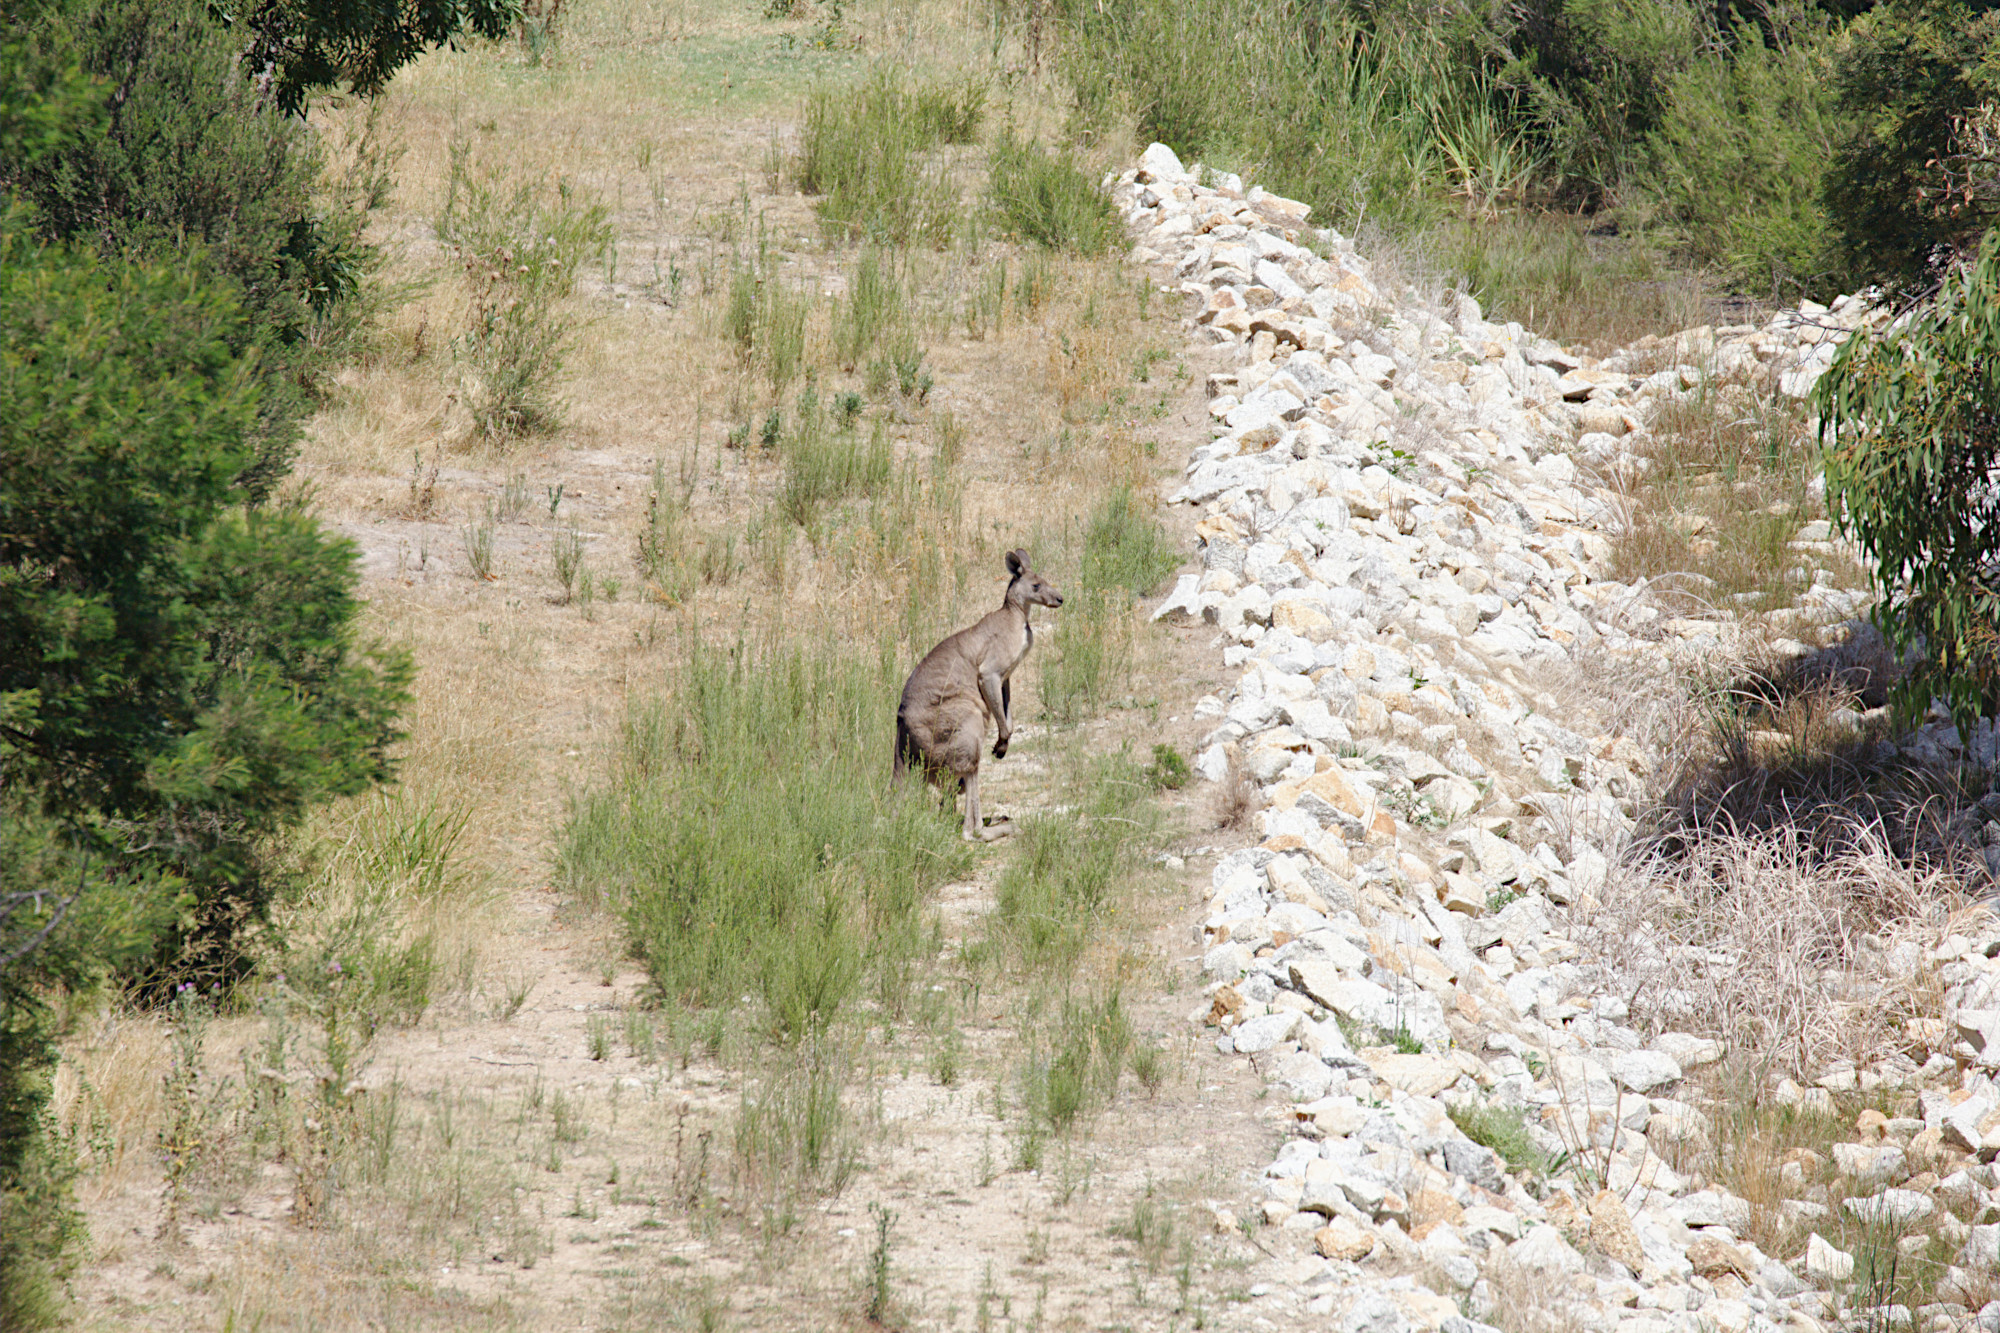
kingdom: Animalia
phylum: Chordata
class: Mammalia
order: Diprotodontia
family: Macropodidae
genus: Macropus
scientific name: Macropus giganteus
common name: Eastern grey kangaroo
